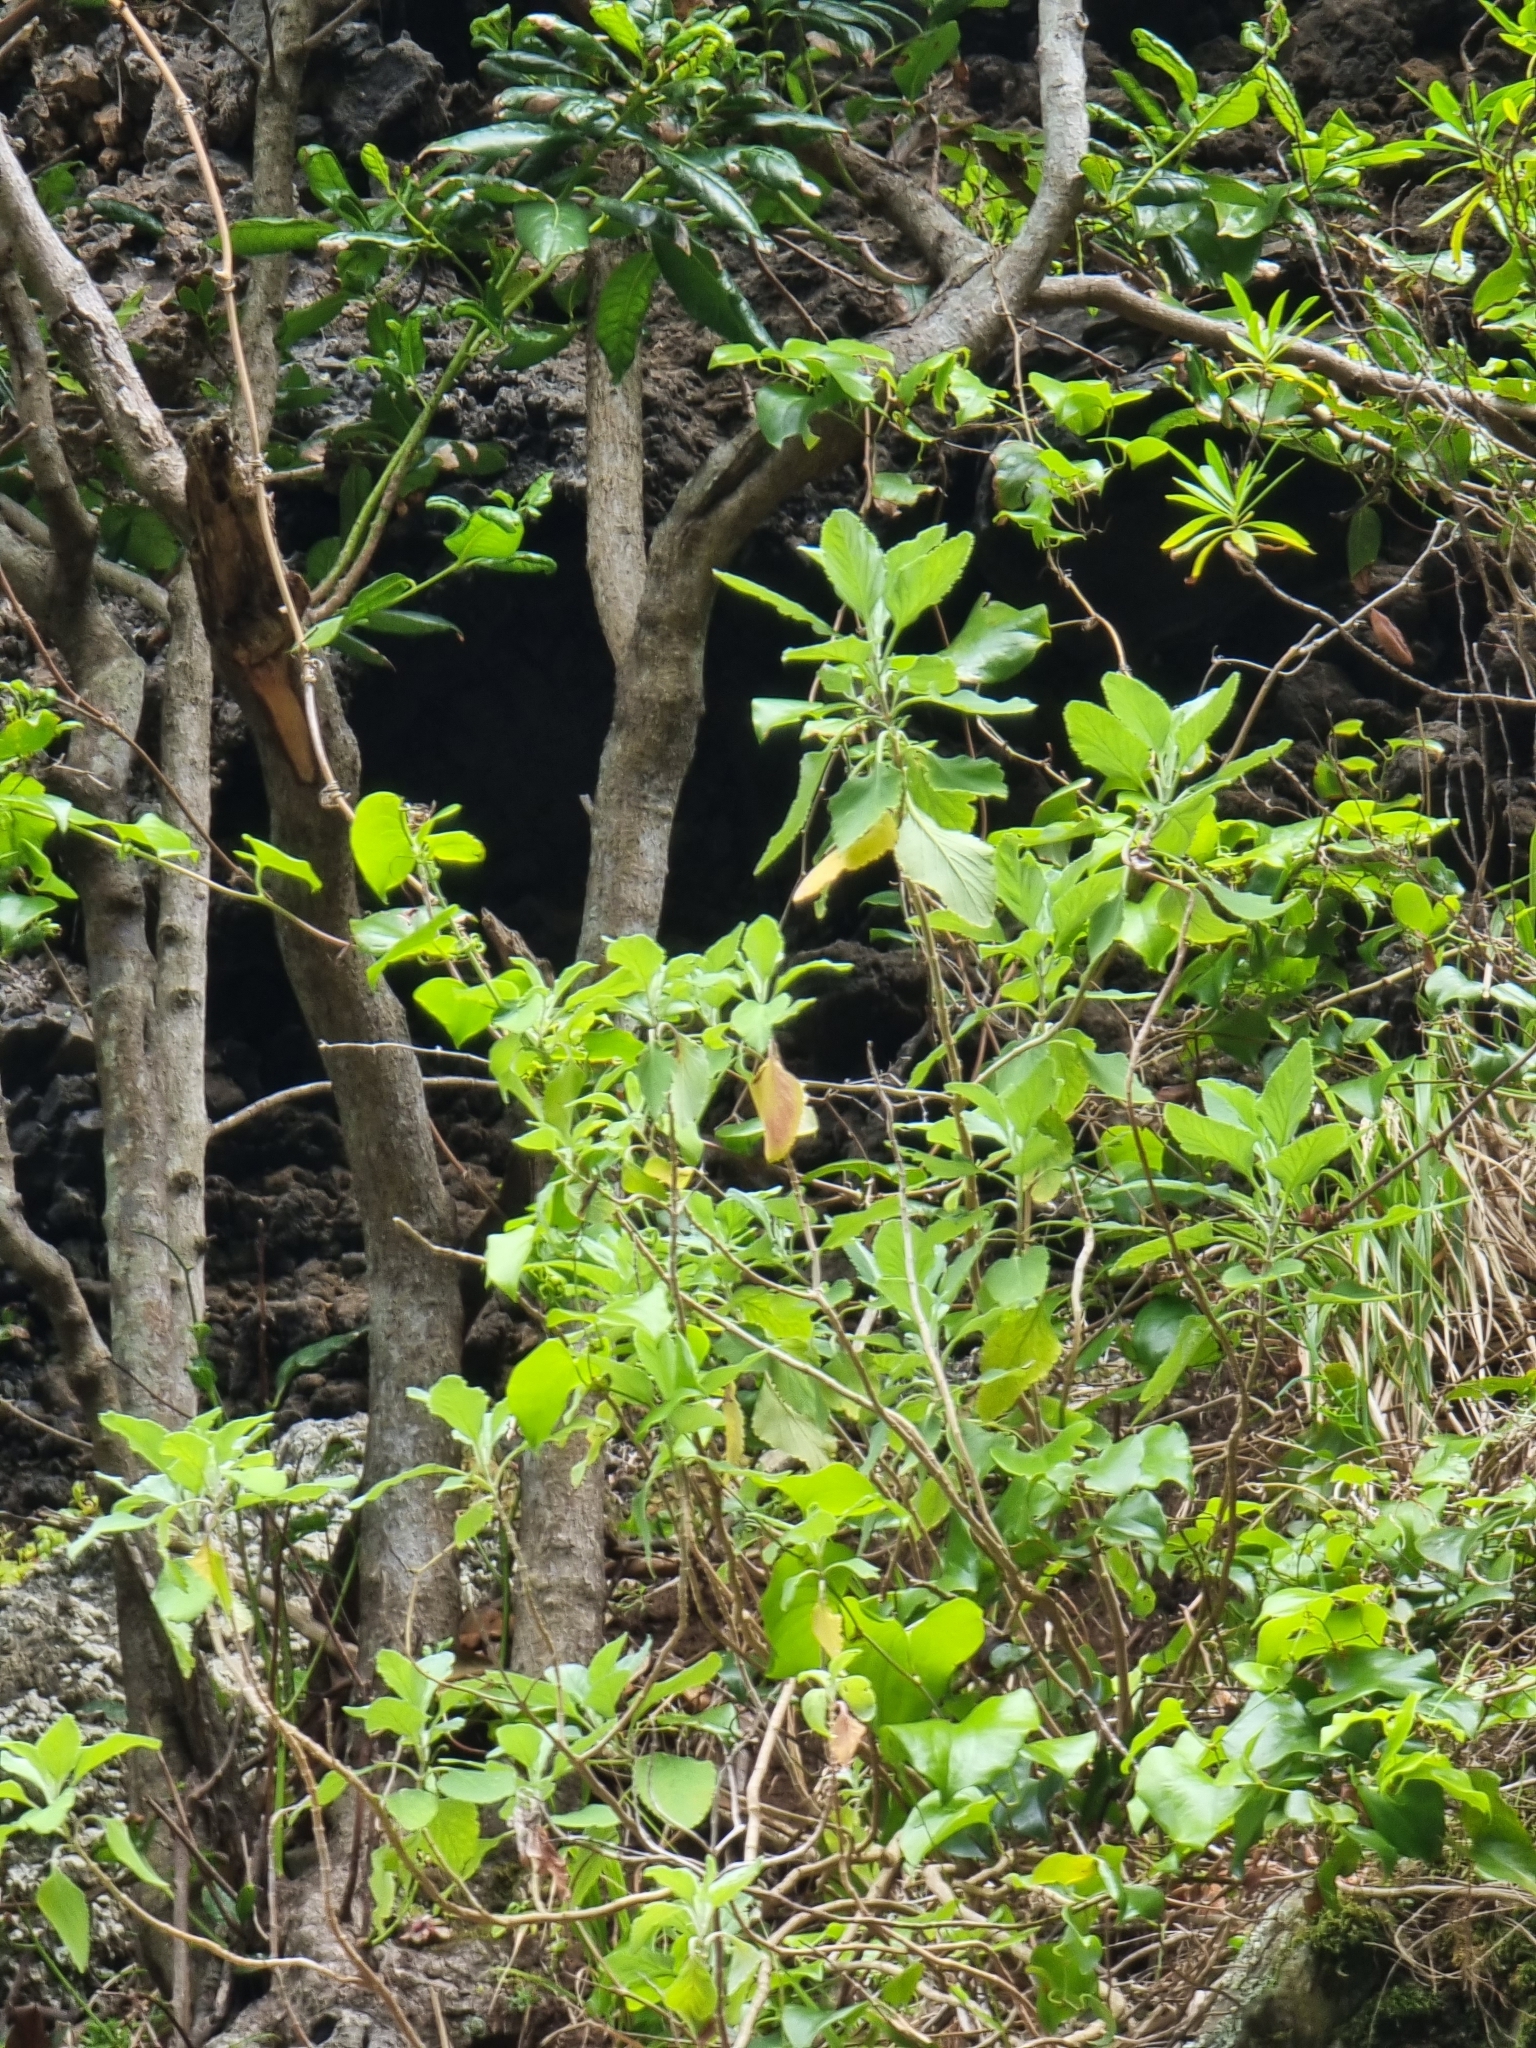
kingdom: Plantae
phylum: Tracheophyta
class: Magnoliopsida
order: Lamiales
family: Lamiaceae
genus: Teucrium
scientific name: Teucrium betonicum
